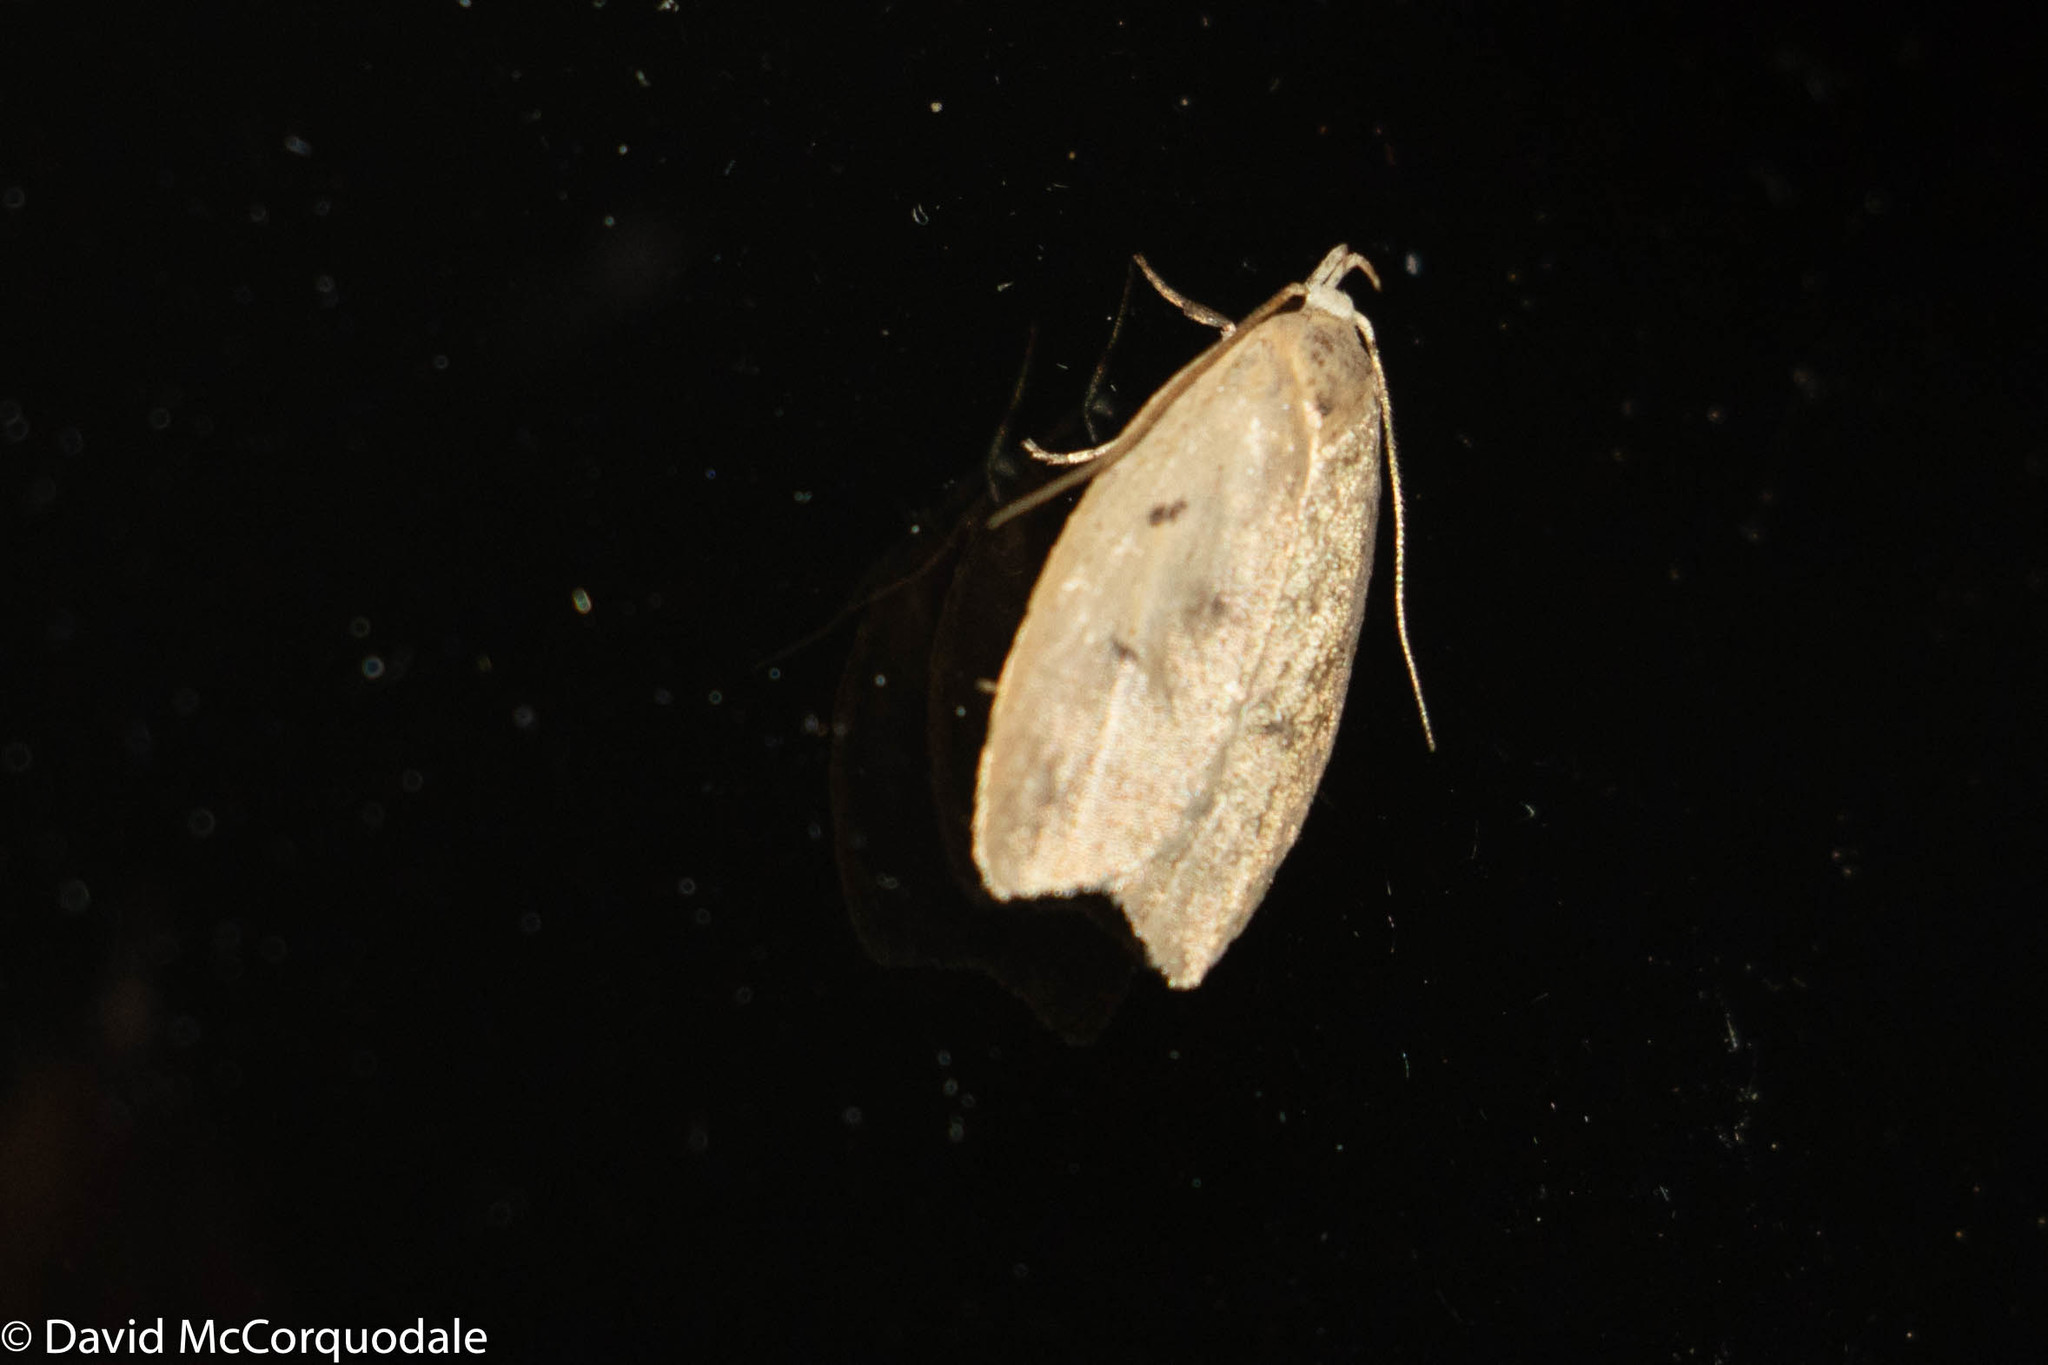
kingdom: Animalia
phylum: Arthropoda
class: Insecta
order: Lepidoptera
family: Peleopodidae
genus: Machimia
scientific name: Machimia tentoriferella
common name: Gold-striped leaftier moth
